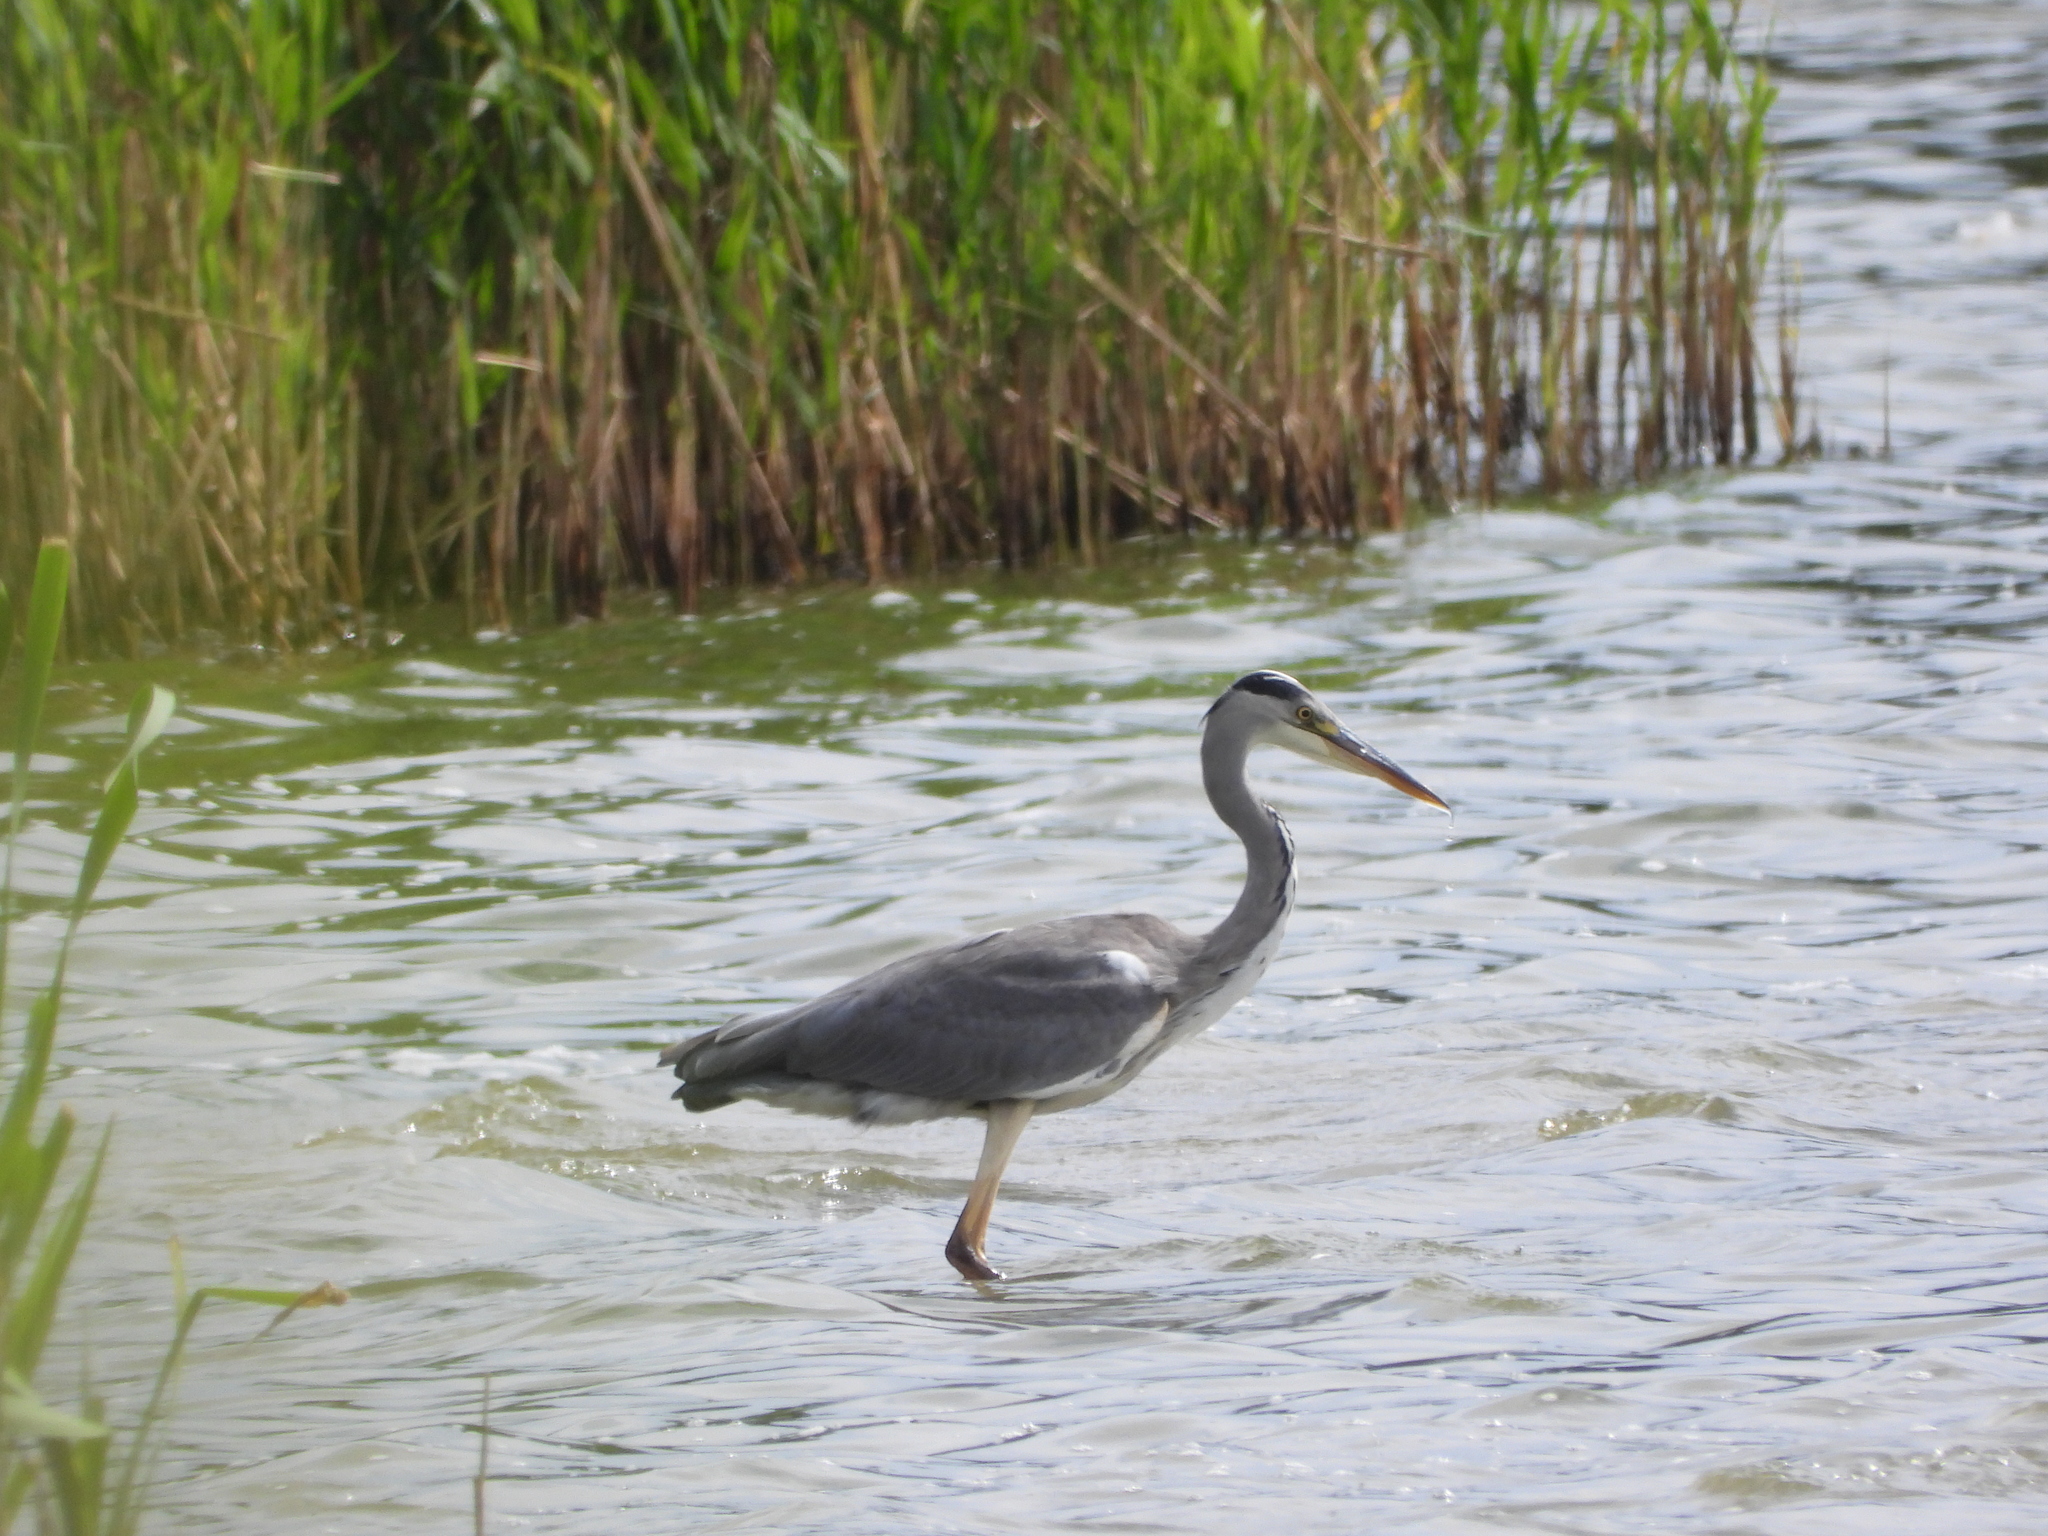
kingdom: Animalia
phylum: Chordata
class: Aves
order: Pelecaniformes
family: Ardeidae
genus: Ardea
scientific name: Ardea cinerea
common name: Grey heron
